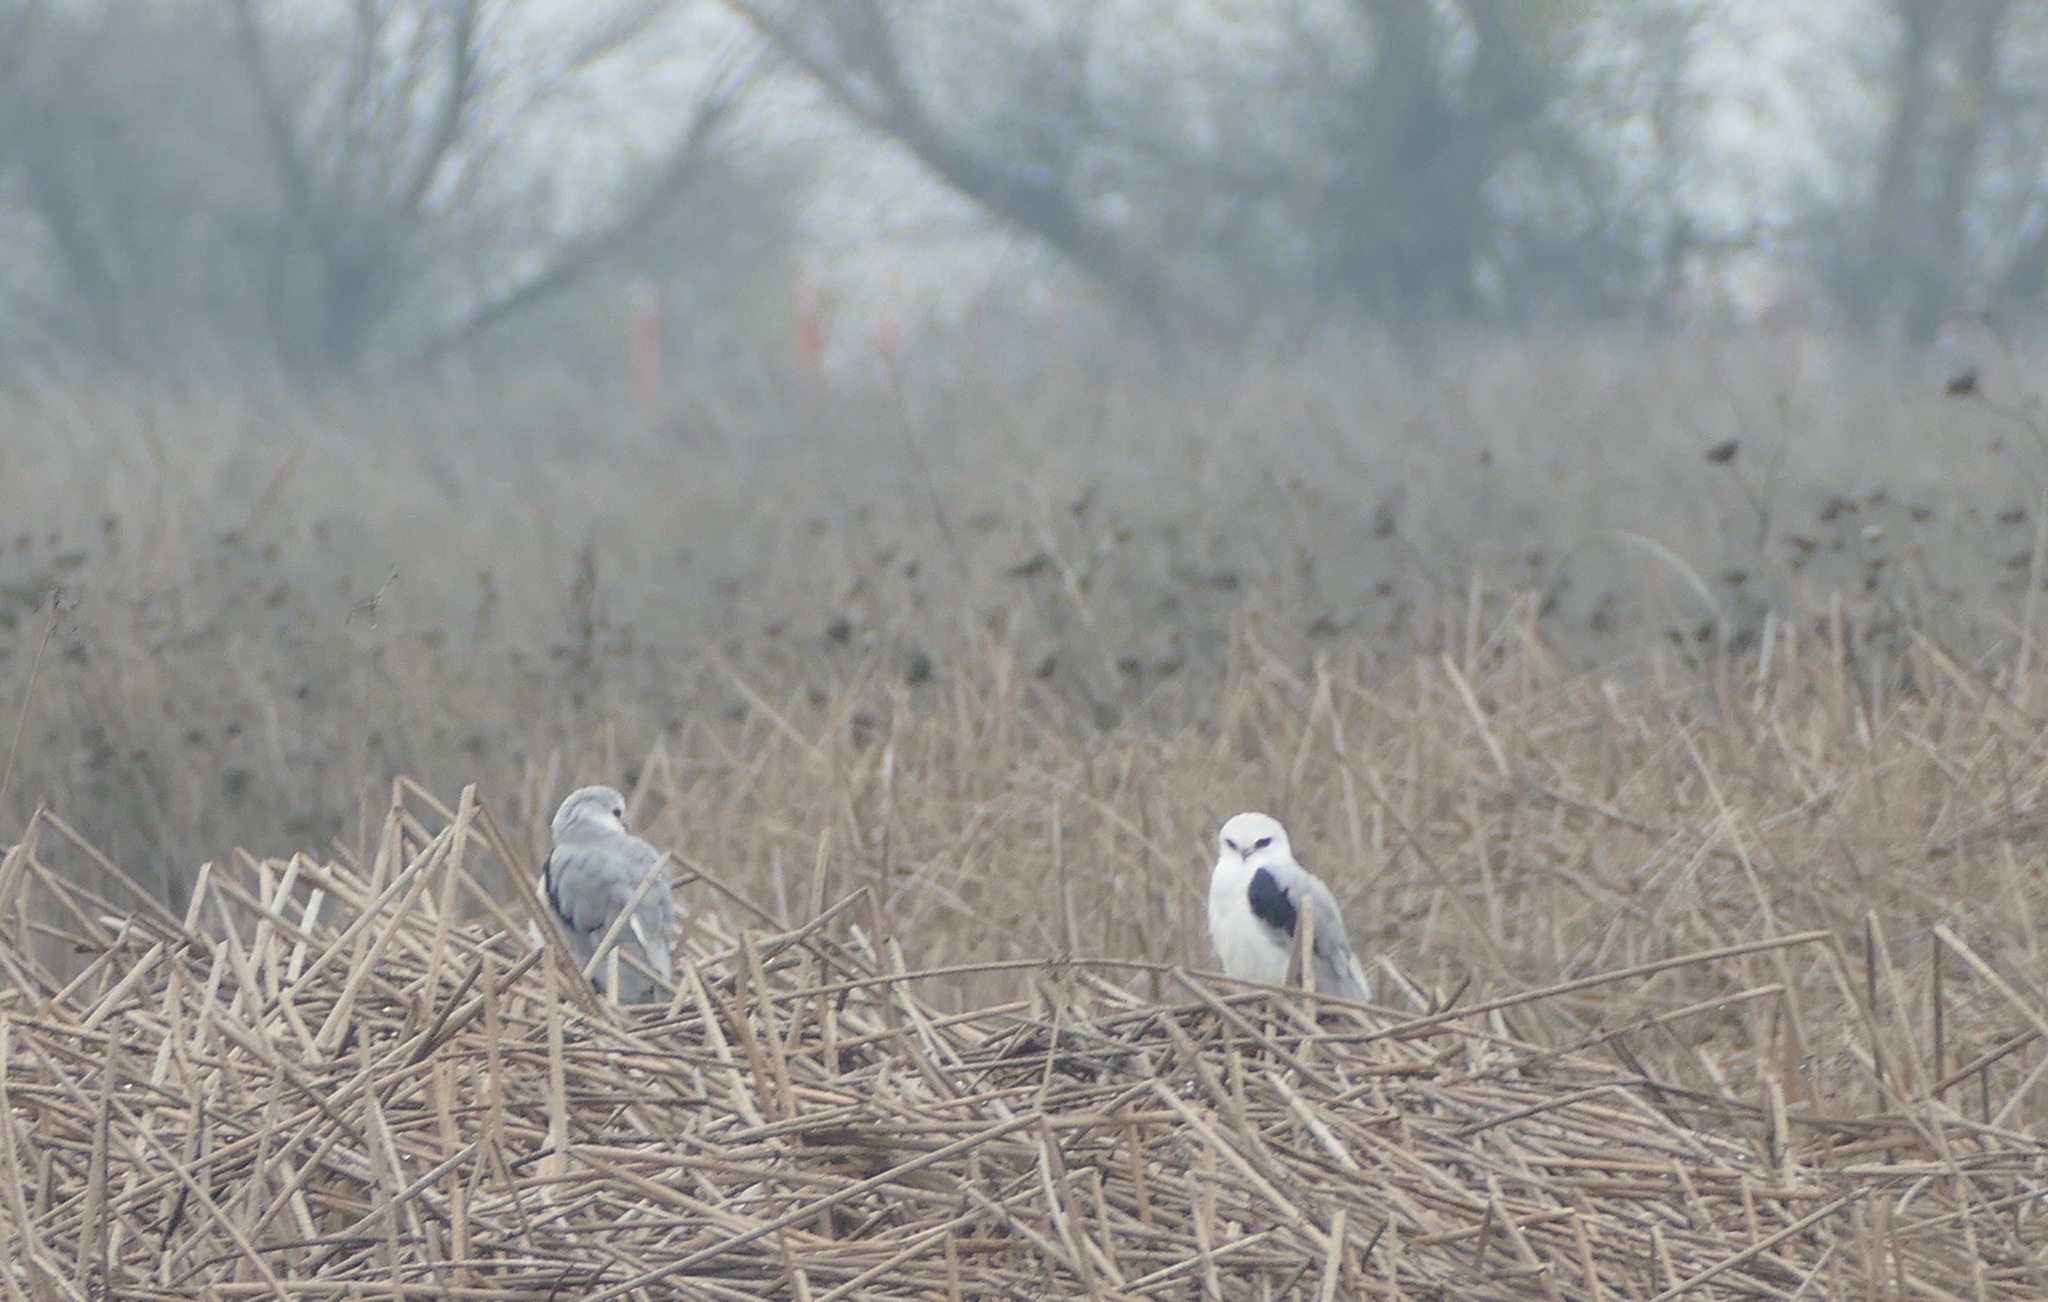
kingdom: Animalia
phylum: Chordata
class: Aves
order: Accipitriformes
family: Accipitridae
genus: Elanus
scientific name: Elanus leucurus
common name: White-tailed kite
